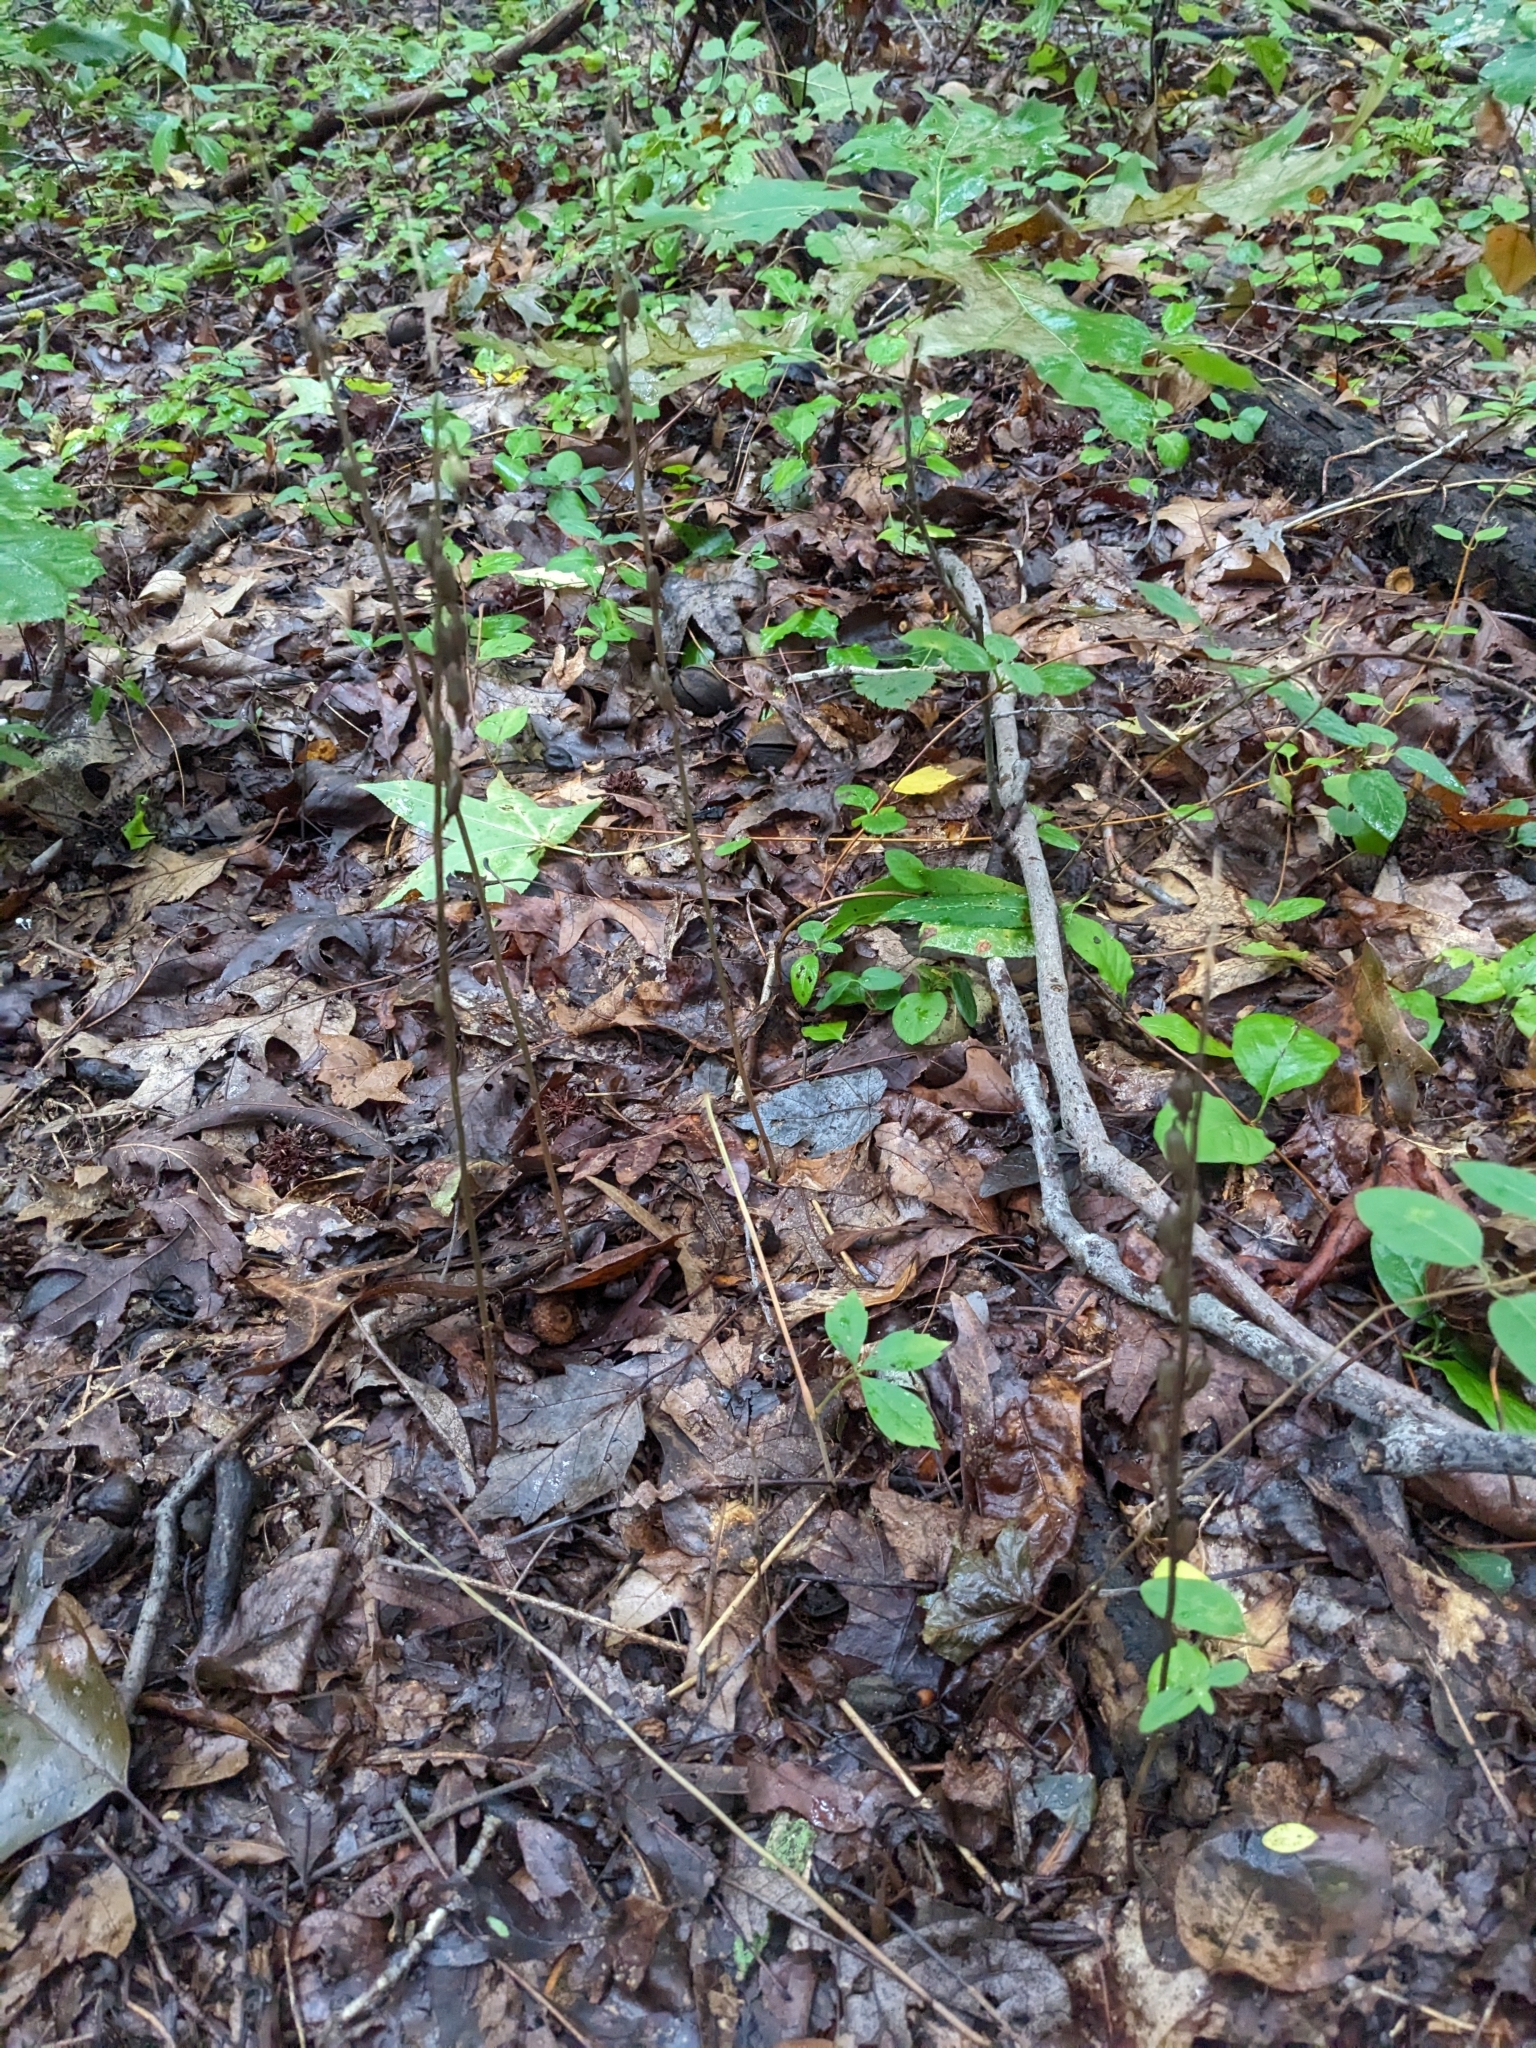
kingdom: Plantae
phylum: Tracheophyta
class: Liliopsida
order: Asparagales
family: Orchidaceae
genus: Tipularia
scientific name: Tipularia discolor
